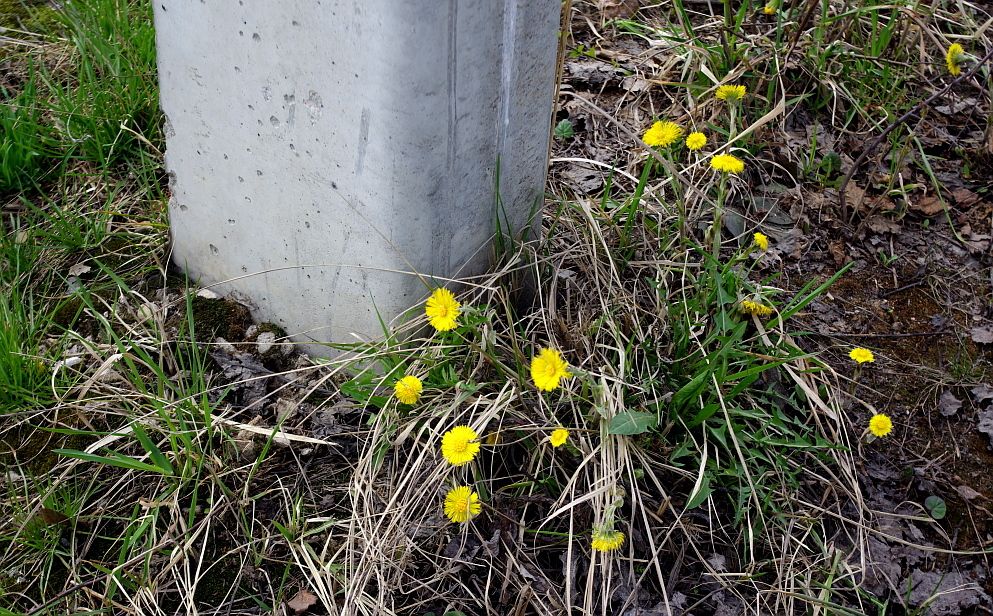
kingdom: Plantae
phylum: Tracheophyta
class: Magnoliopsida
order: Asterales
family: Asteraceae
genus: Tussilago
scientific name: Tussilago farfara
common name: Coltsfoot
